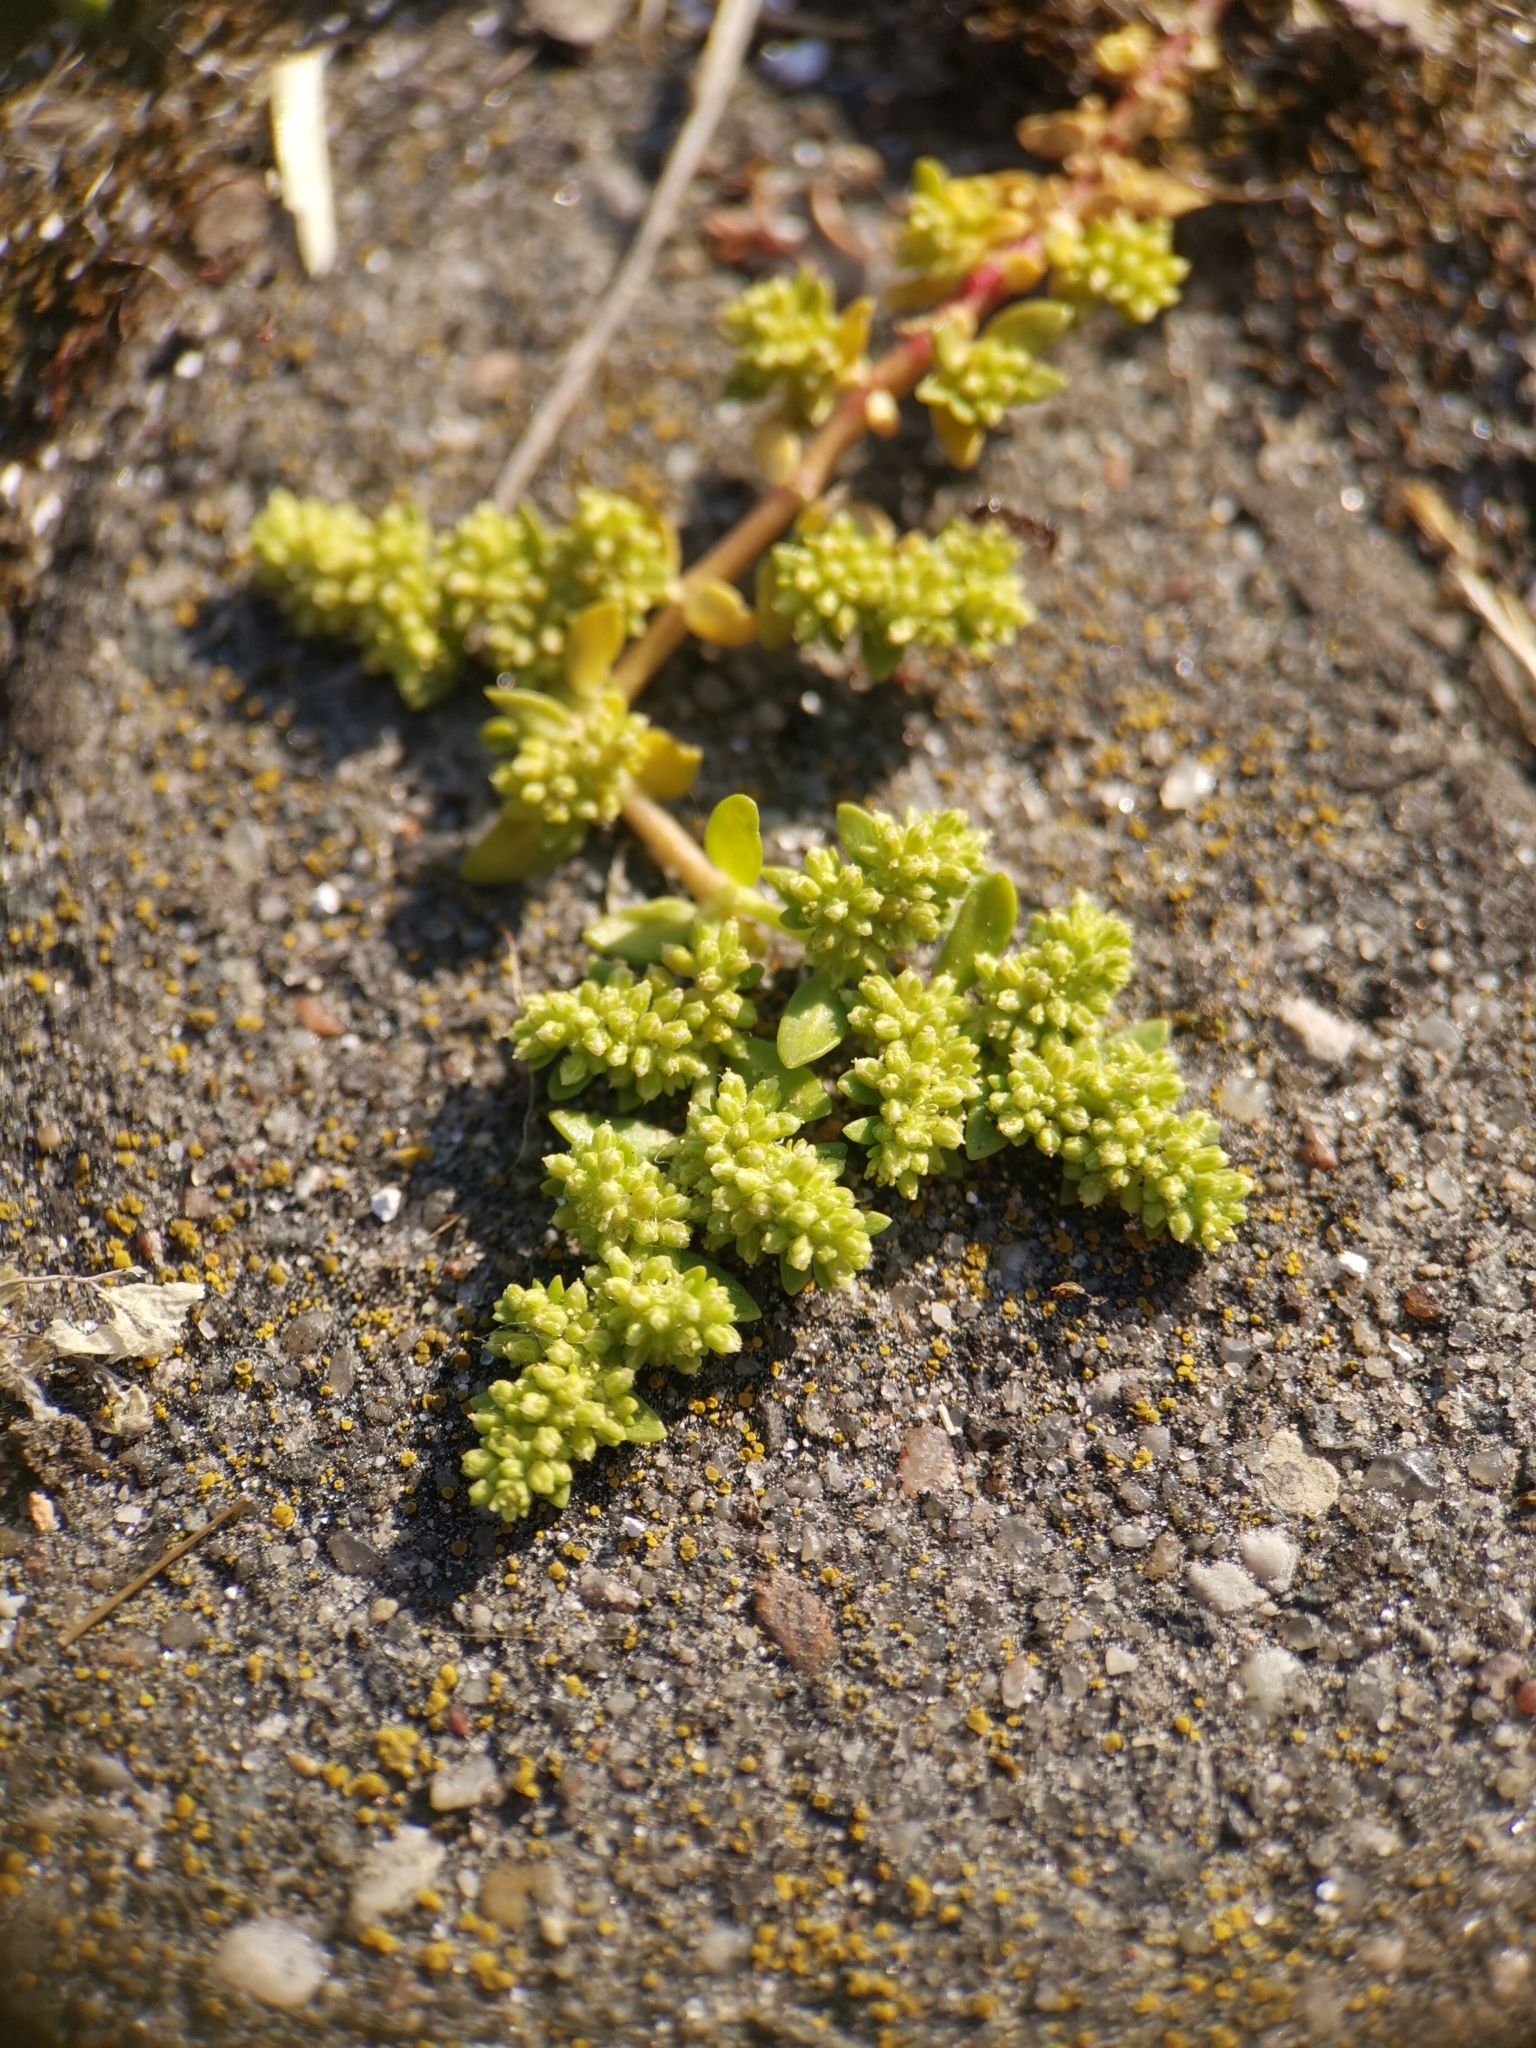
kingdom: Plantae
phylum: Tracheophyta
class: Magnoliopsida
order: Caryophyllales
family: Caryophyllaceae
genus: Herniaria
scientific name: Herniaria glabra
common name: Smooth rupturewort
